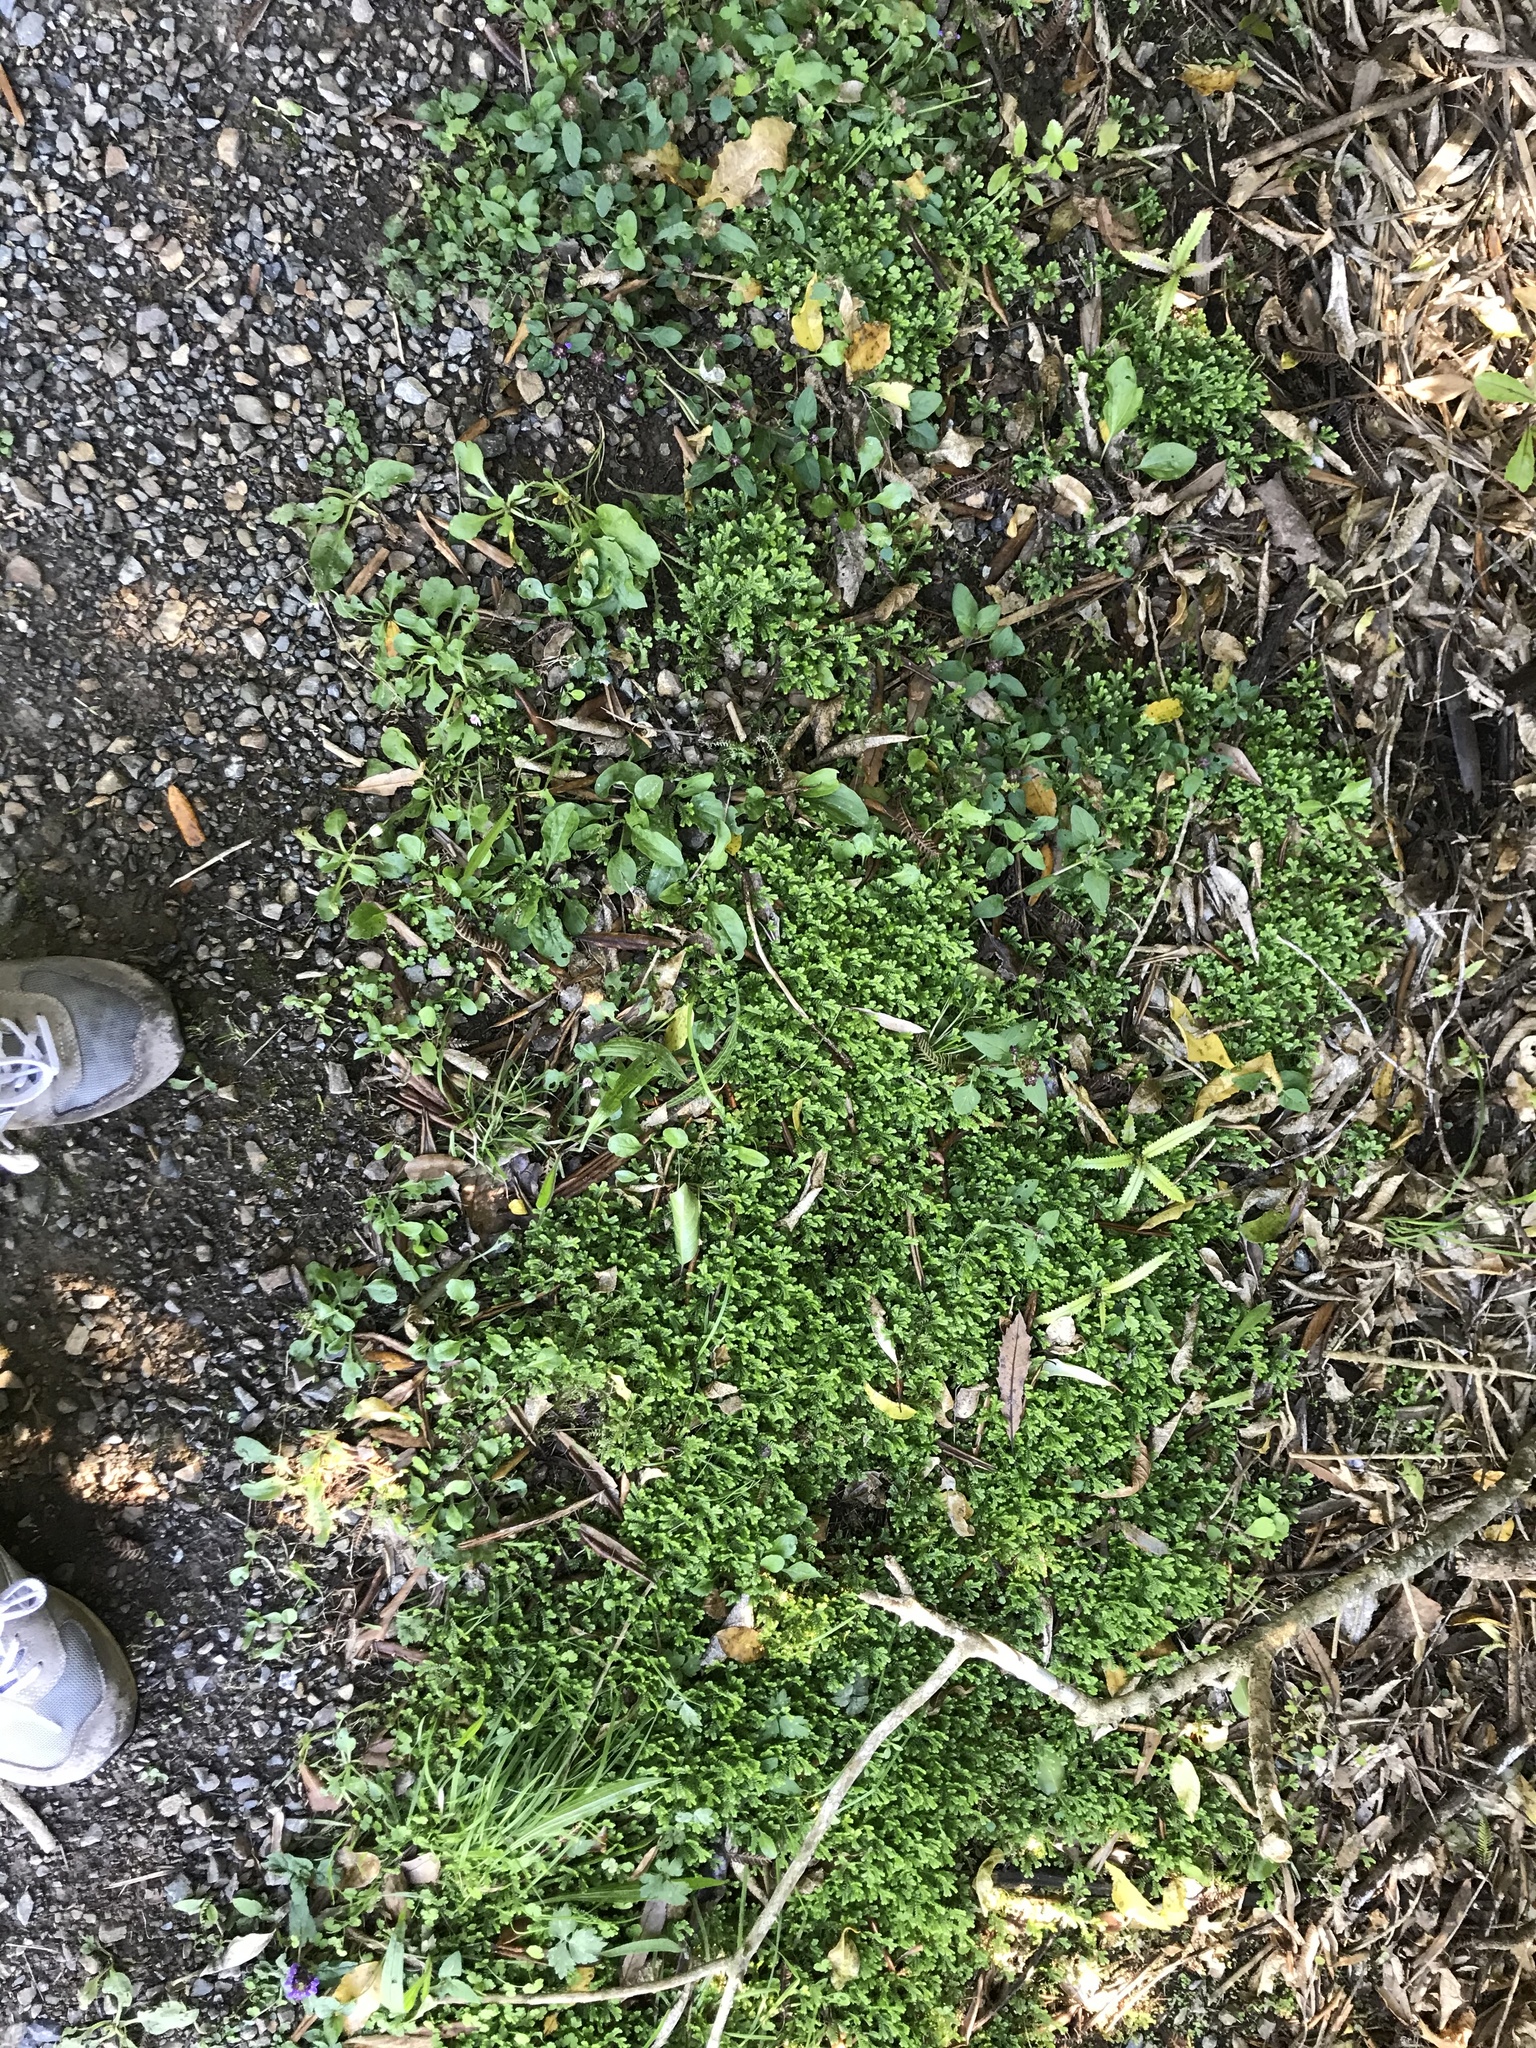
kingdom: Plantae
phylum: Tracheophyta
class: Lycopodiopsida
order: Selaginellales
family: Selaginellaceae
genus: Selaginella
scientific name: Selaginella kraussiana
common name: Krauss' spikemoss
